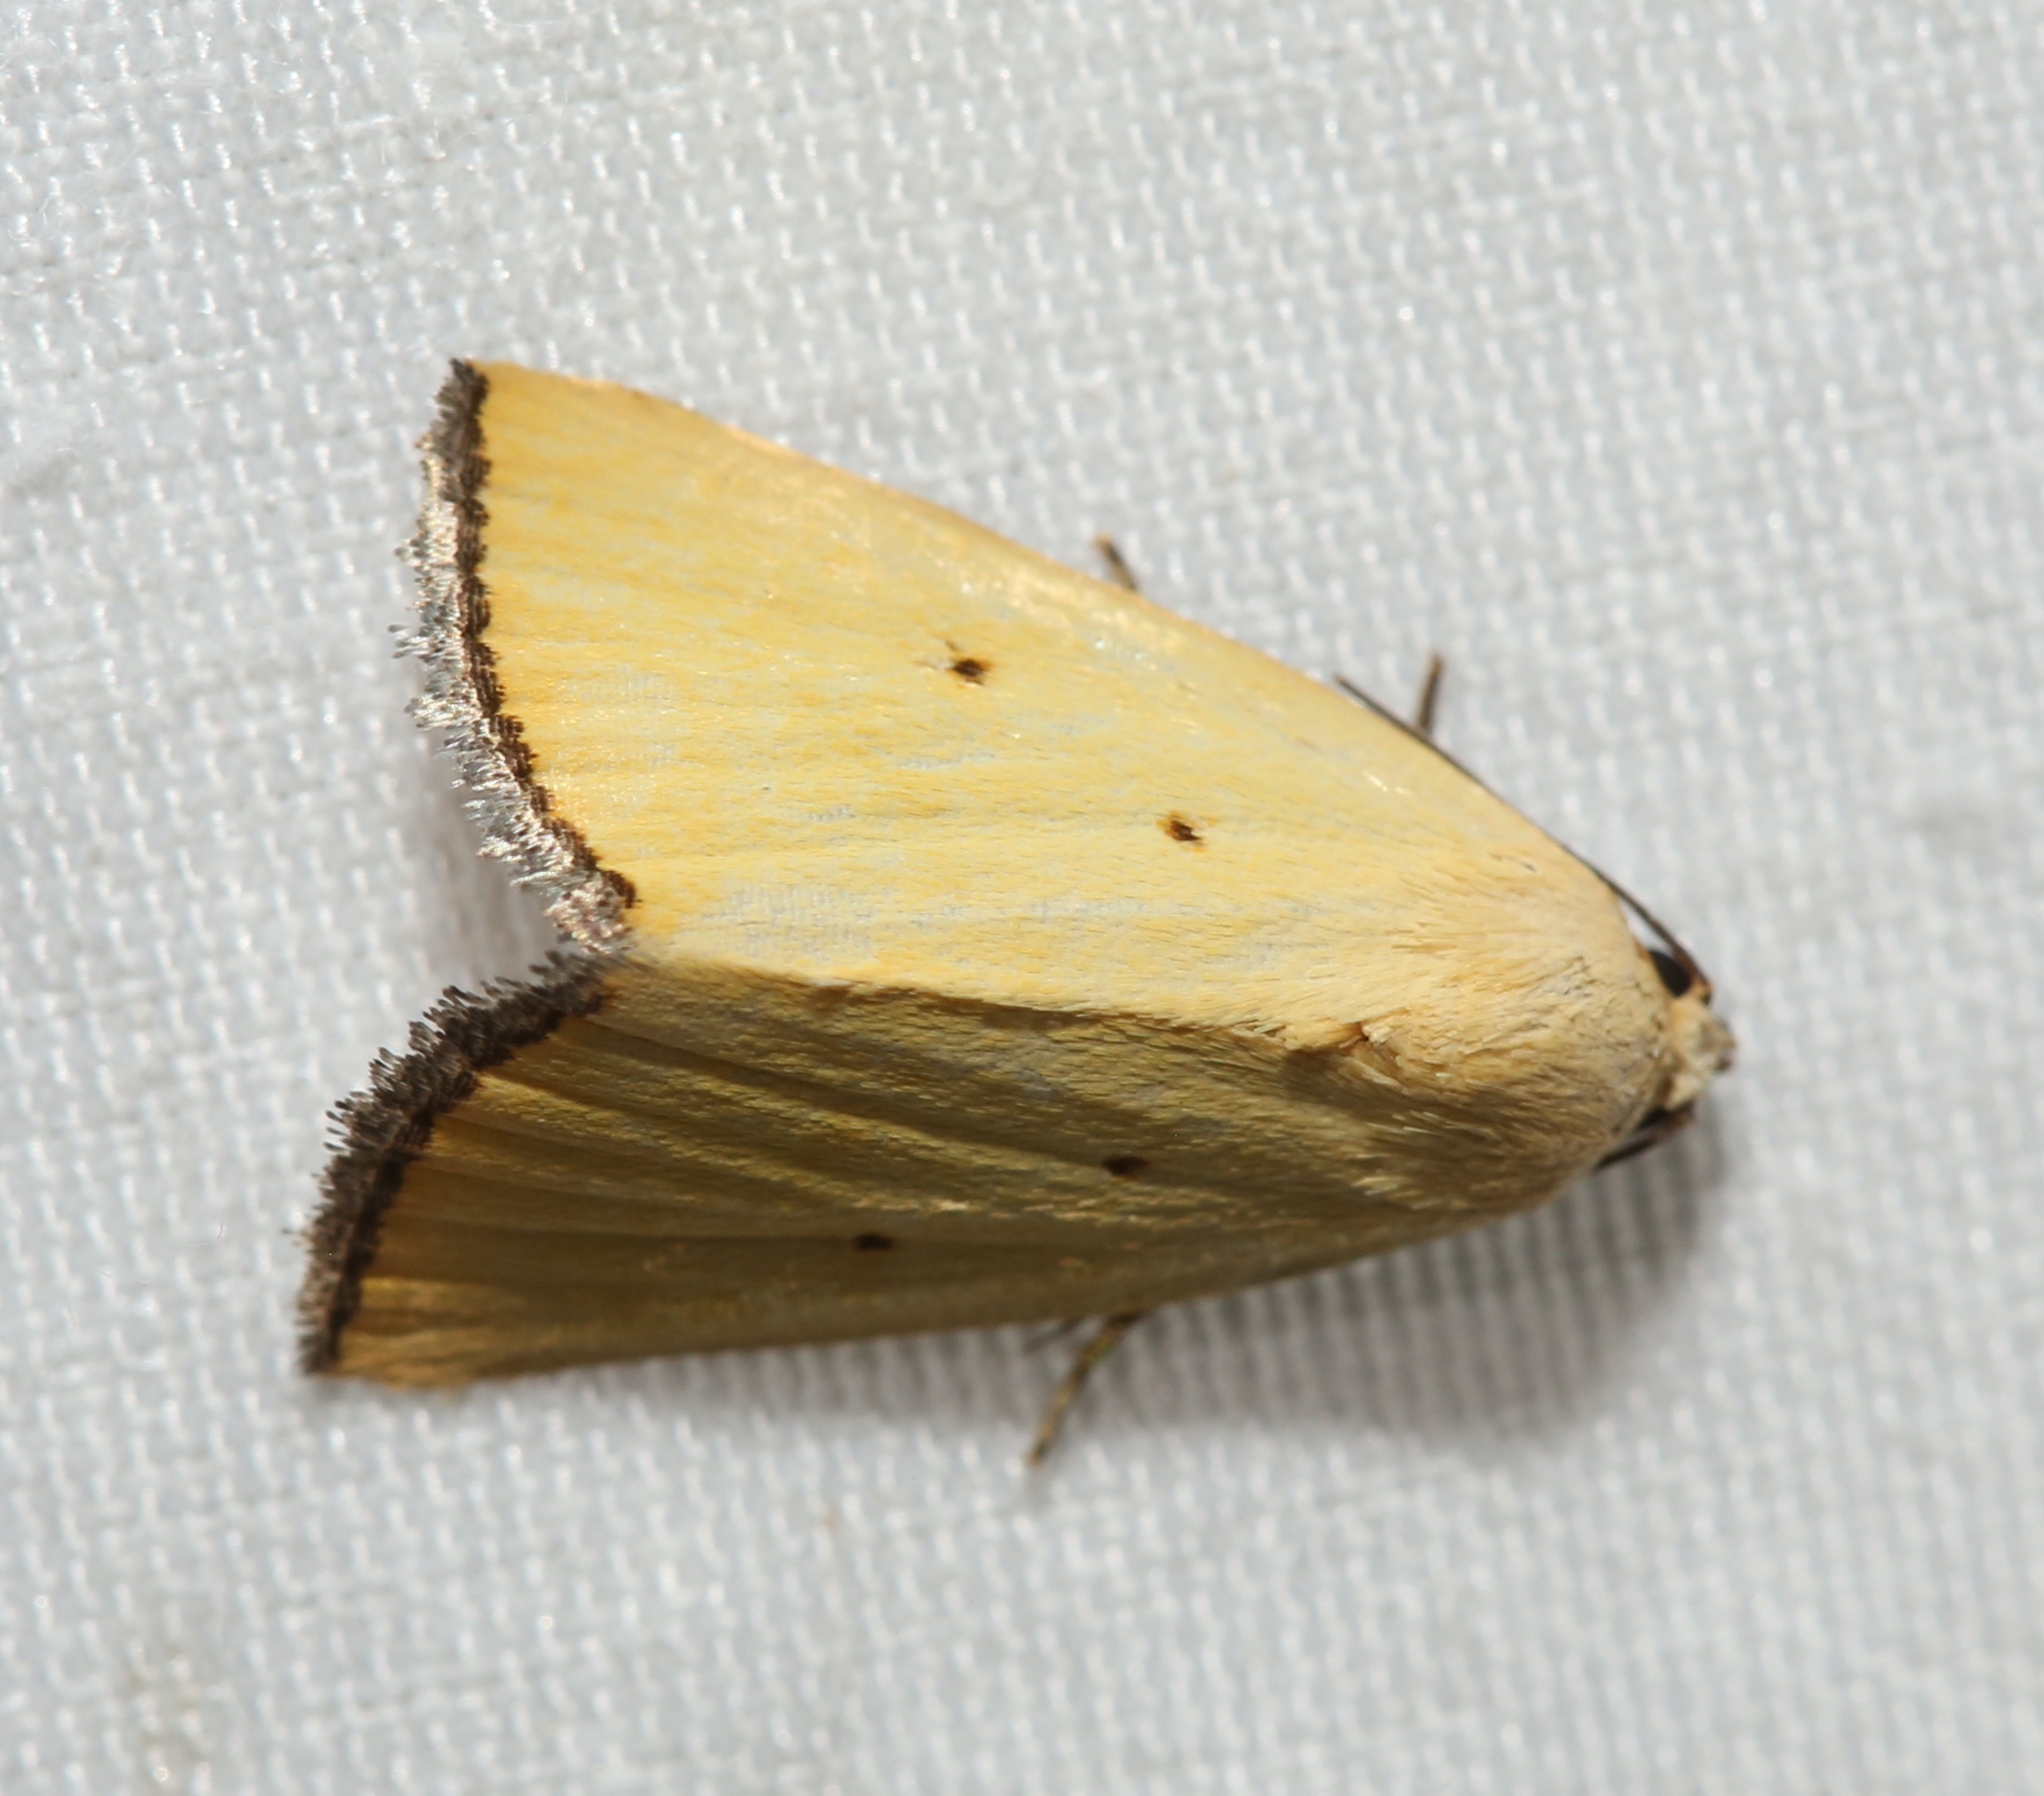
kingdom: Animalia
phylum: Arthropoda
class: Insecta
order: Lepidoptera
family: Noctuidae
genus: Marimatha
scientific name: Marimatha nigrofimbria
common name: Black-bordered lemon moth
